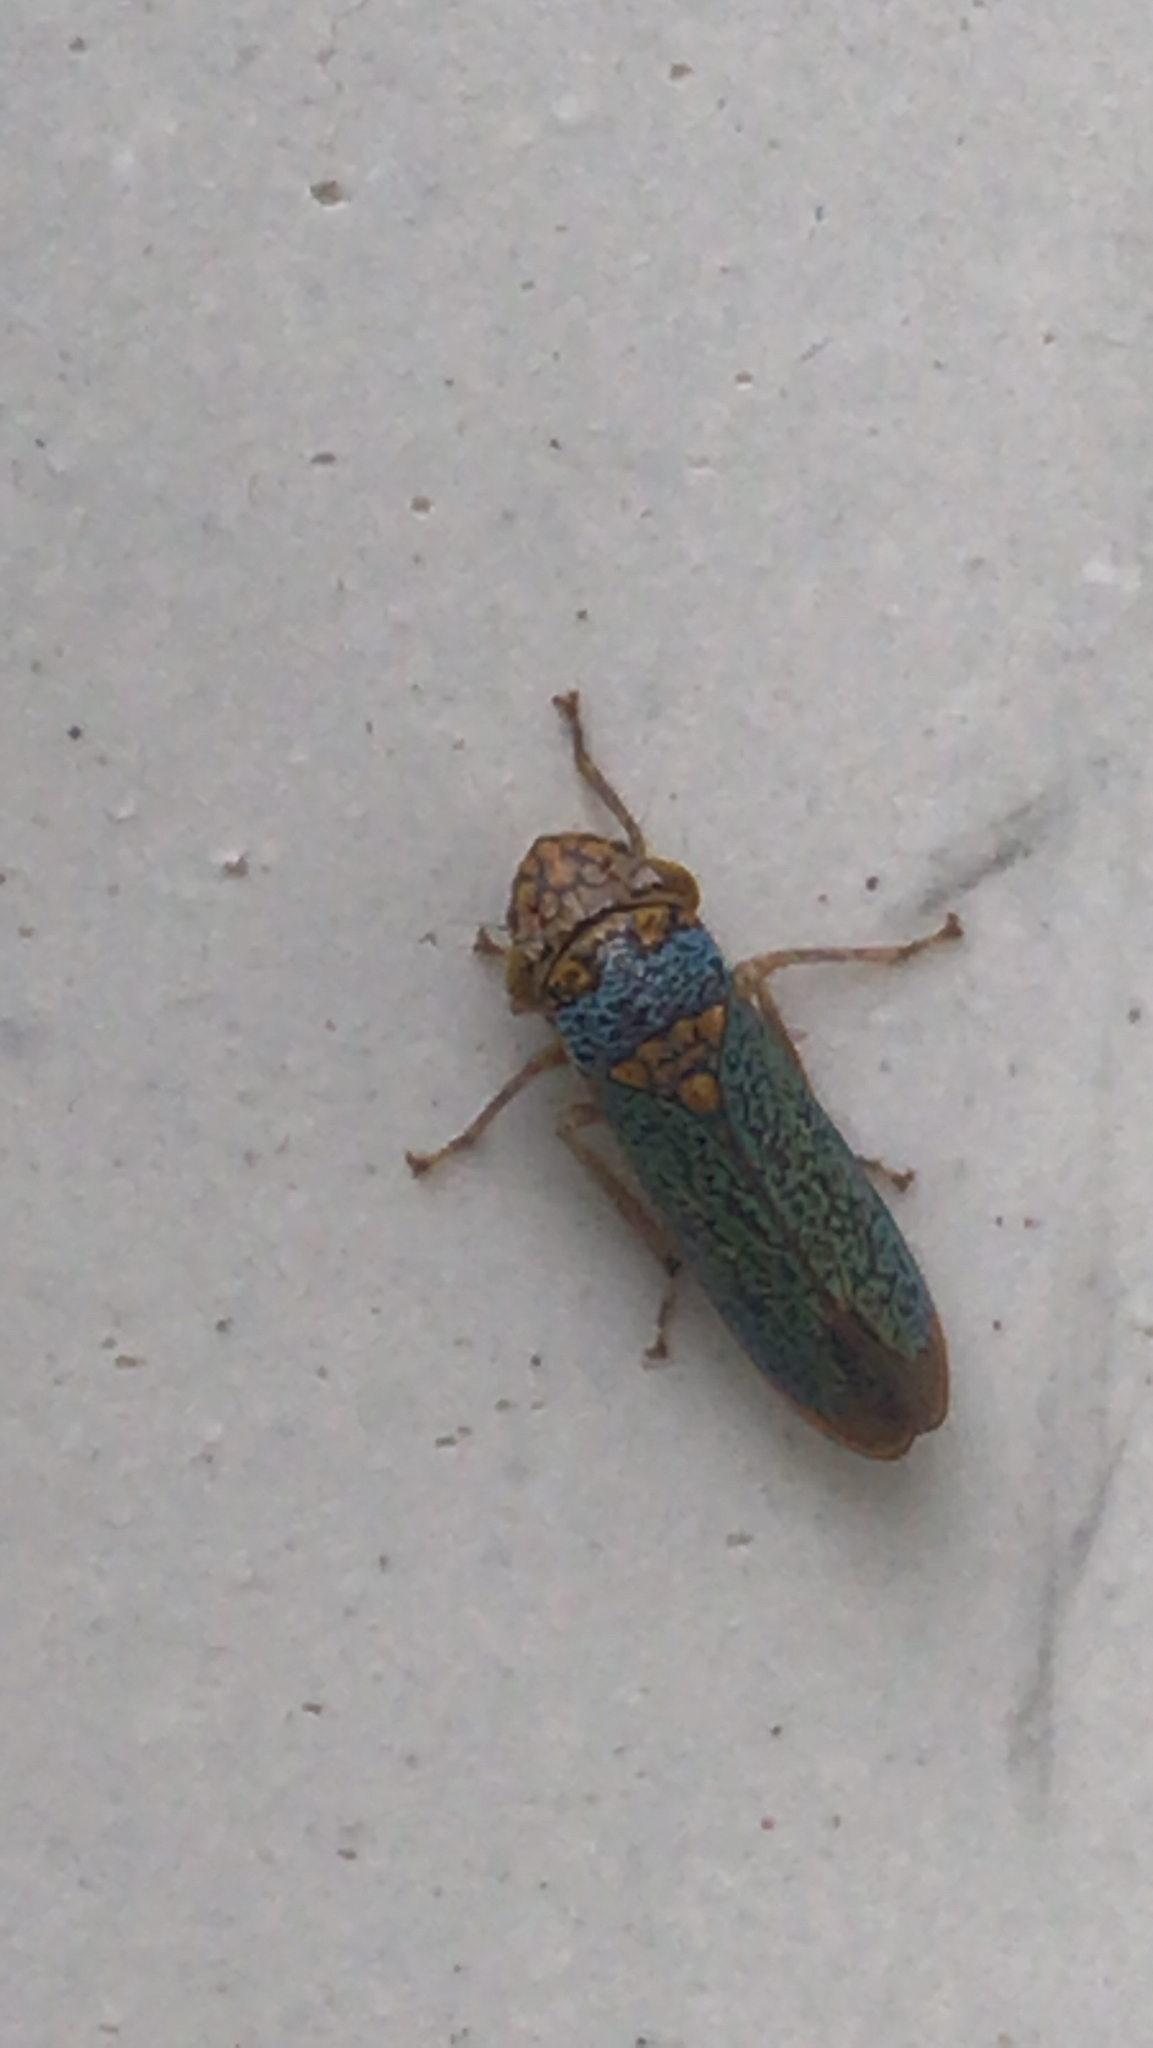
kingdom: Animalia
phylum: Arthropoda
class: Insecta
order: Hemiptera
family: Cicadellidae
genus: Oncometopia
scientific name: Oncometopia orbona
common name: Broad-headed sharpshooter
